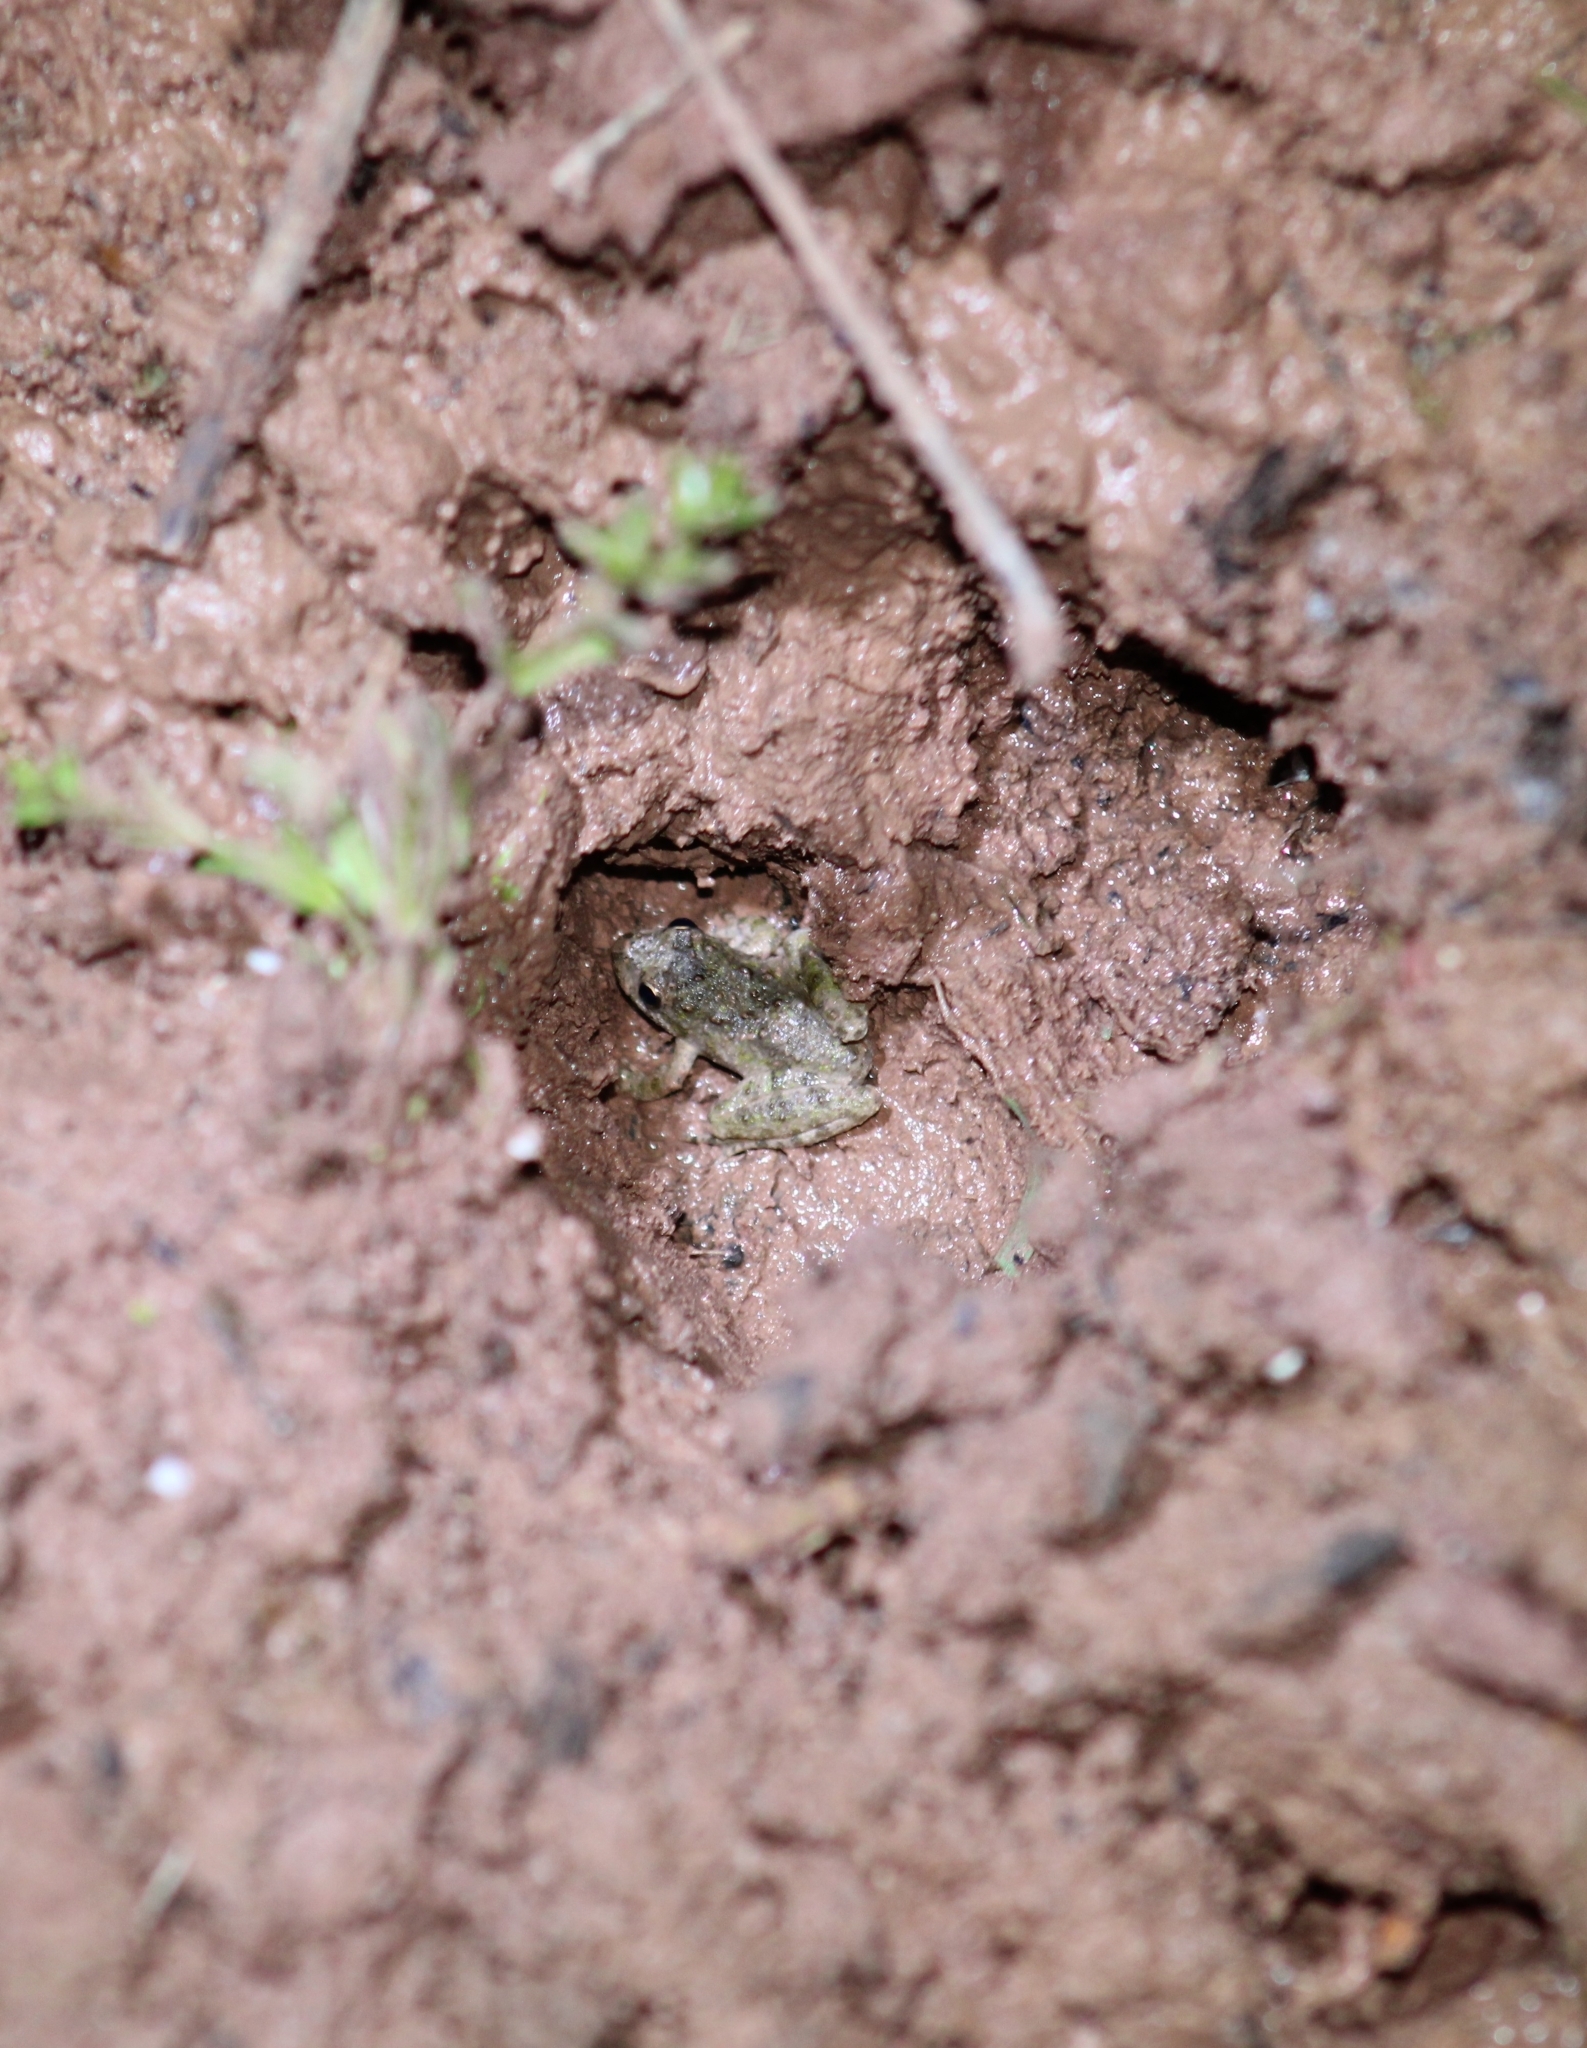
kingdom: Animalia
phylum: Chordata
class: Amphibia
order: Anura
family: Hylidae
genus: Acris
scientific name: Acris blanchardi
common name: Blanchard's cricket frog
